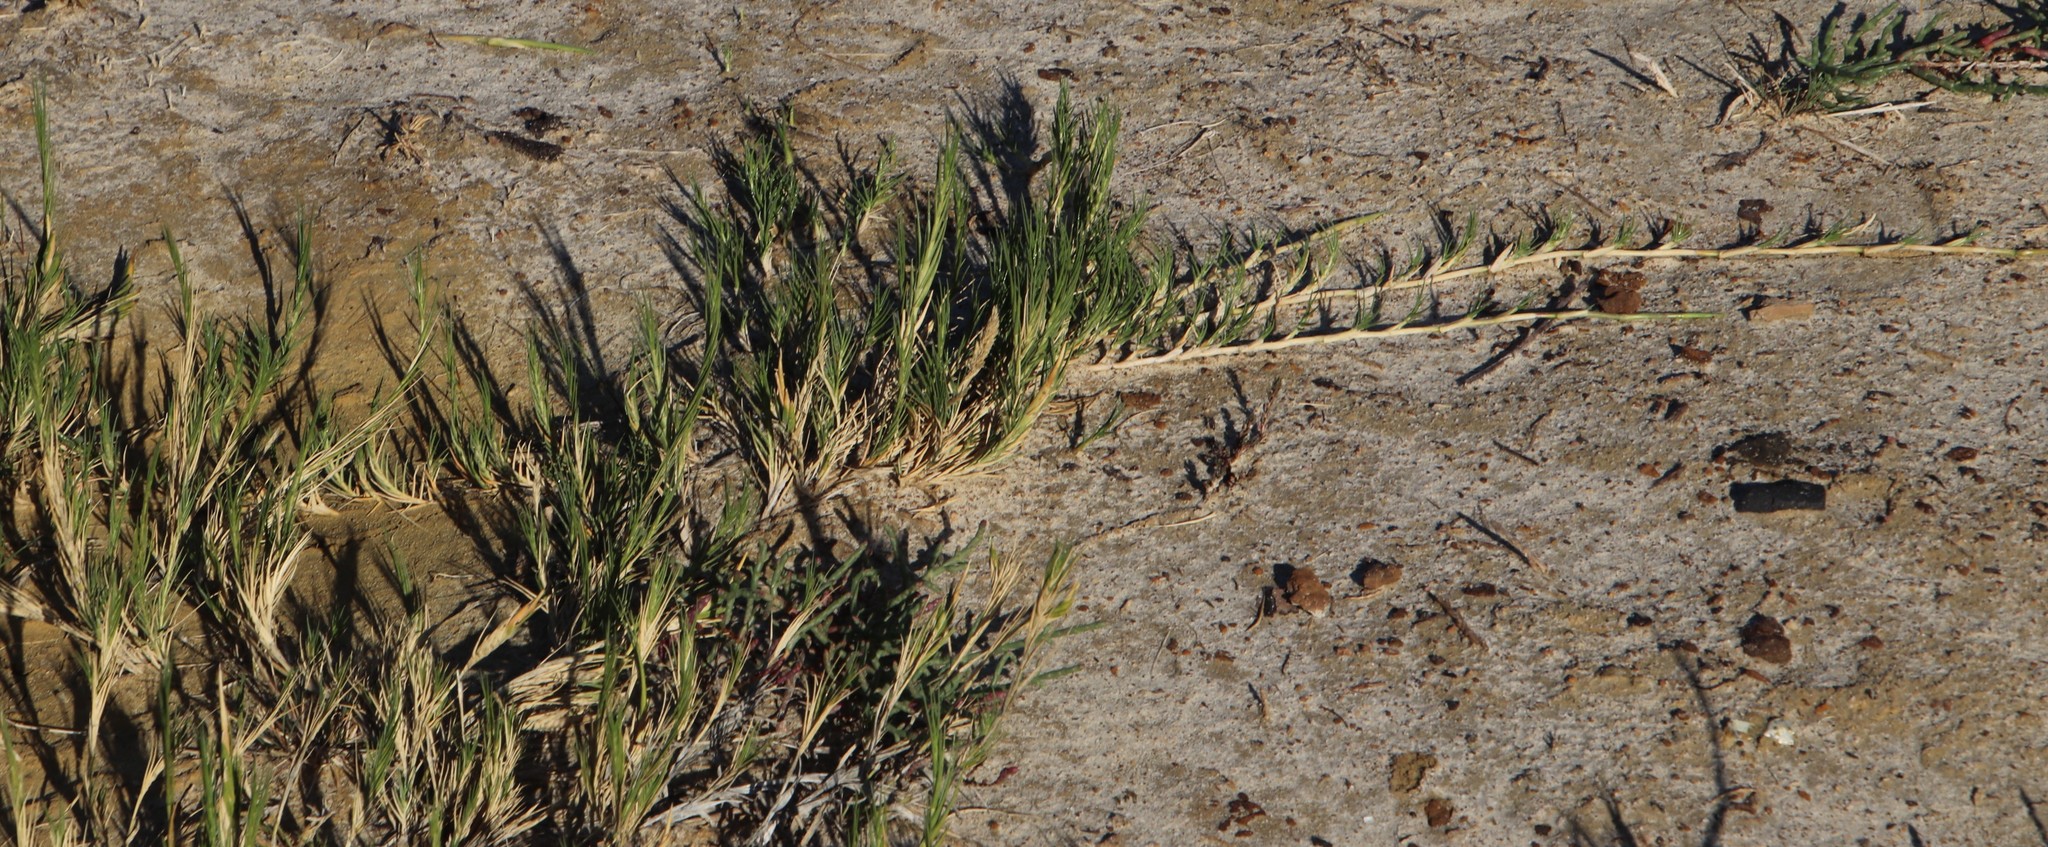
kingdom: Plantae
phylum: Tracheophyta
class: Liliopsida
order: Poales
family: Poaceae
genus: Sporobolus
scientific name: Sporobolus virginicus
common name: Beach dropseed
